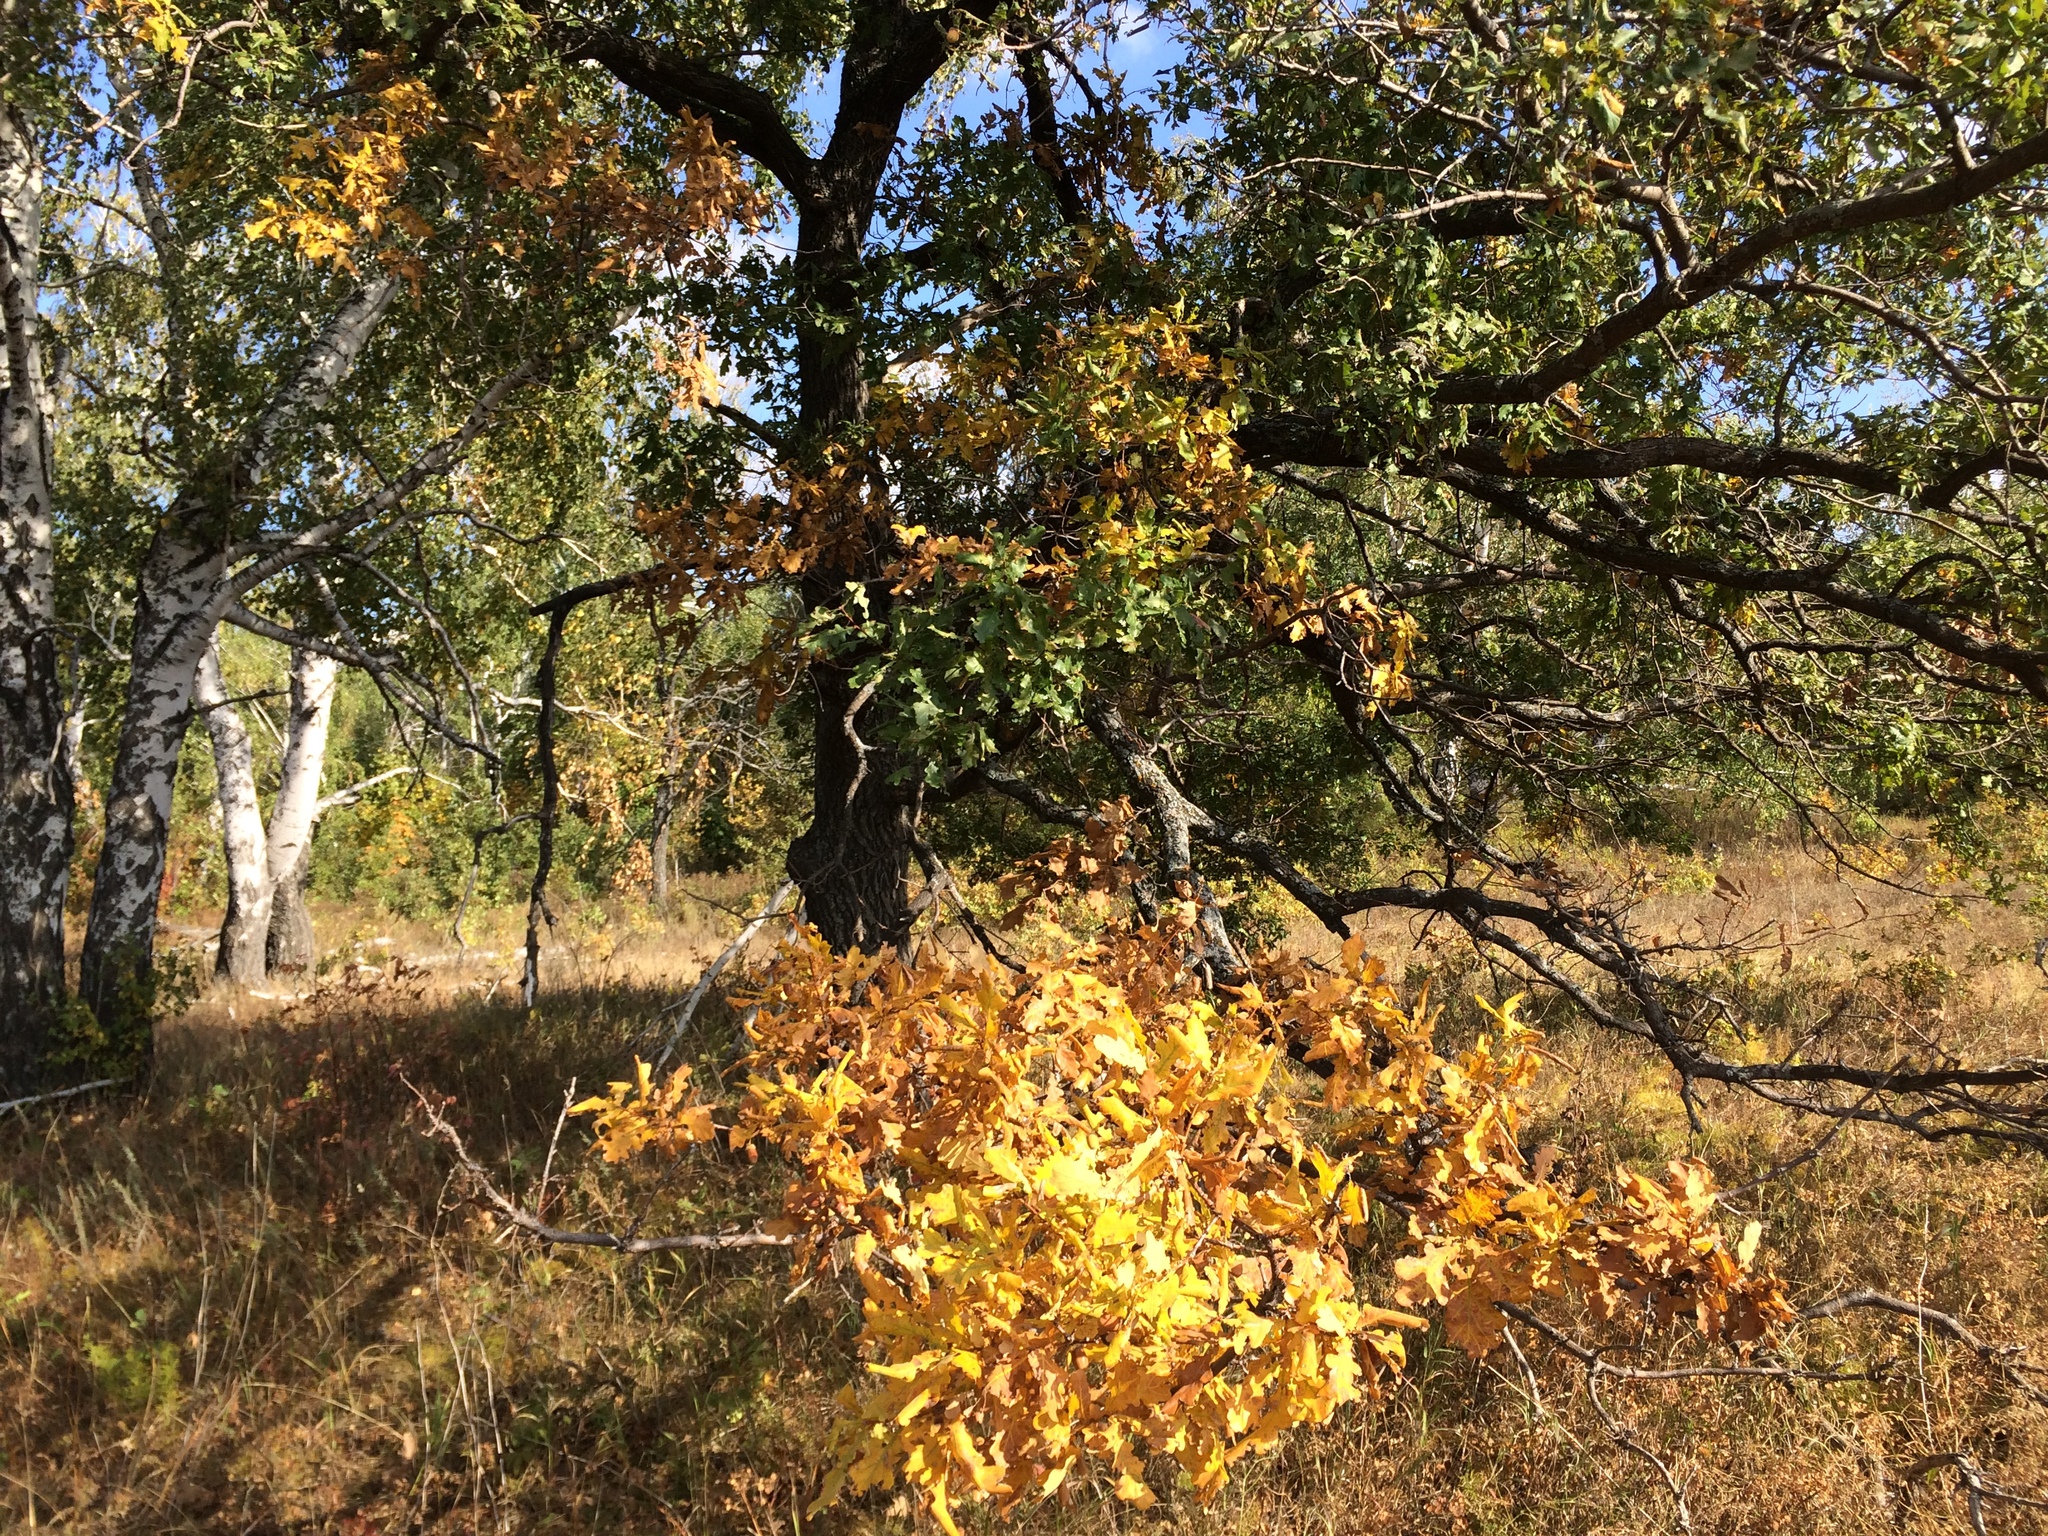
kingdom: Plantae
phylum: Tracheophyta
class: Magnoliopsida
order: Fagales
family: Fagaceae
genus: Quercus
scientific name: Quercus robur
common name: Pedunculate oak
